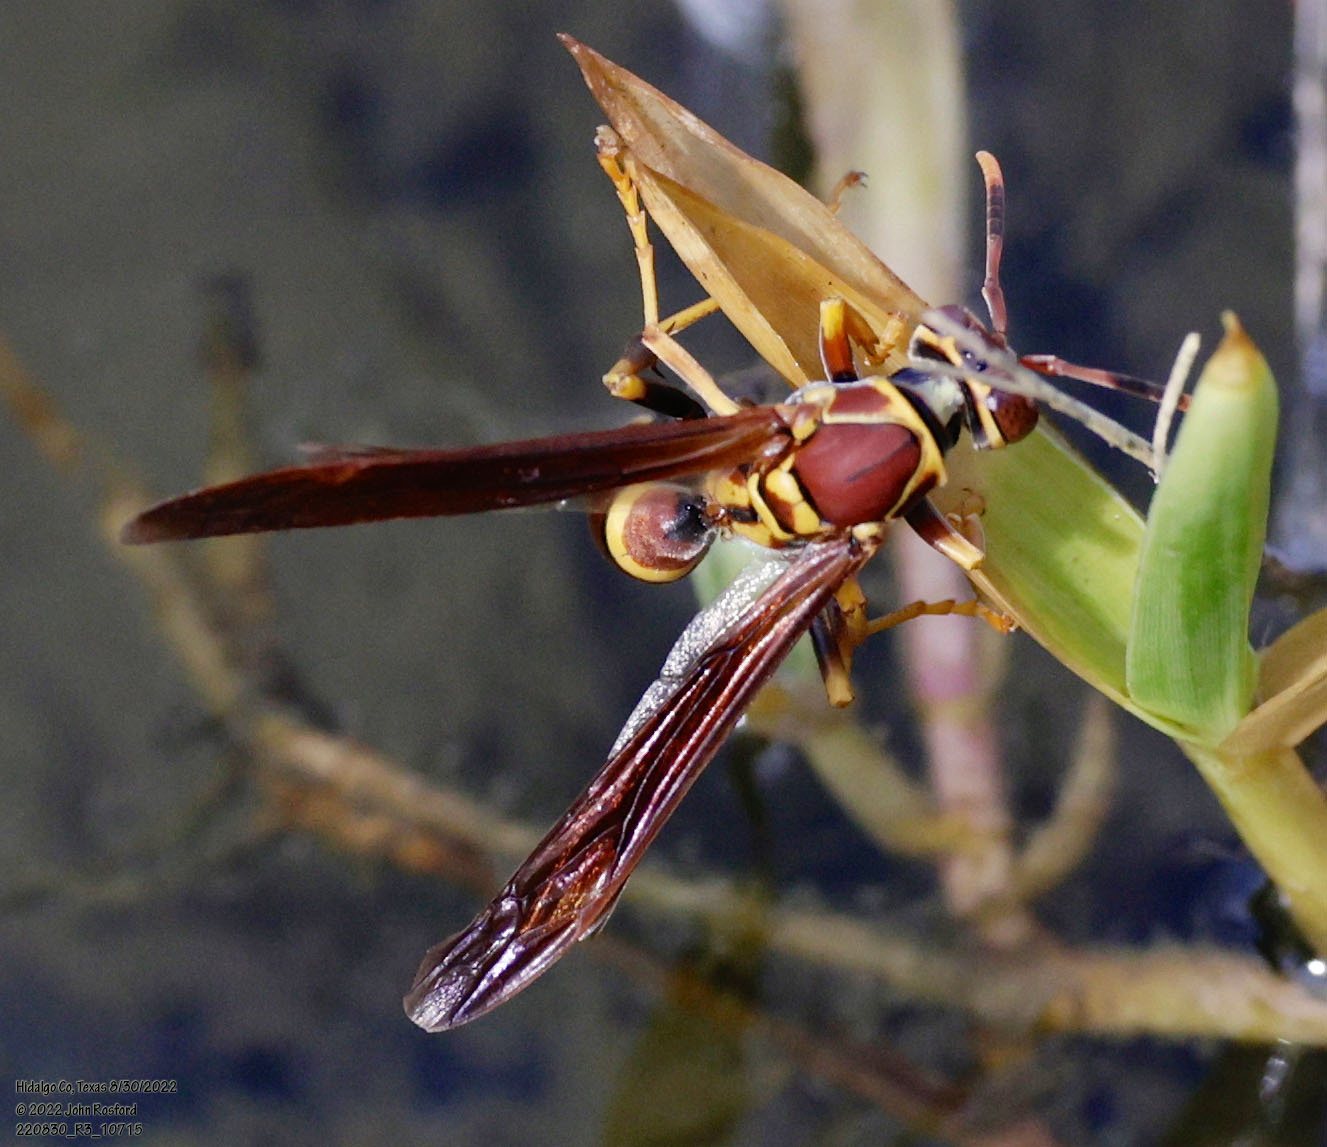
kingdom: Animalia
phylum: Arthropoda
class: Insecta
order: Hymenoptera
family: Eumenidae
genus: Polistes
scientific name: Polistes instabilis
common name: Unstable paper wasp
